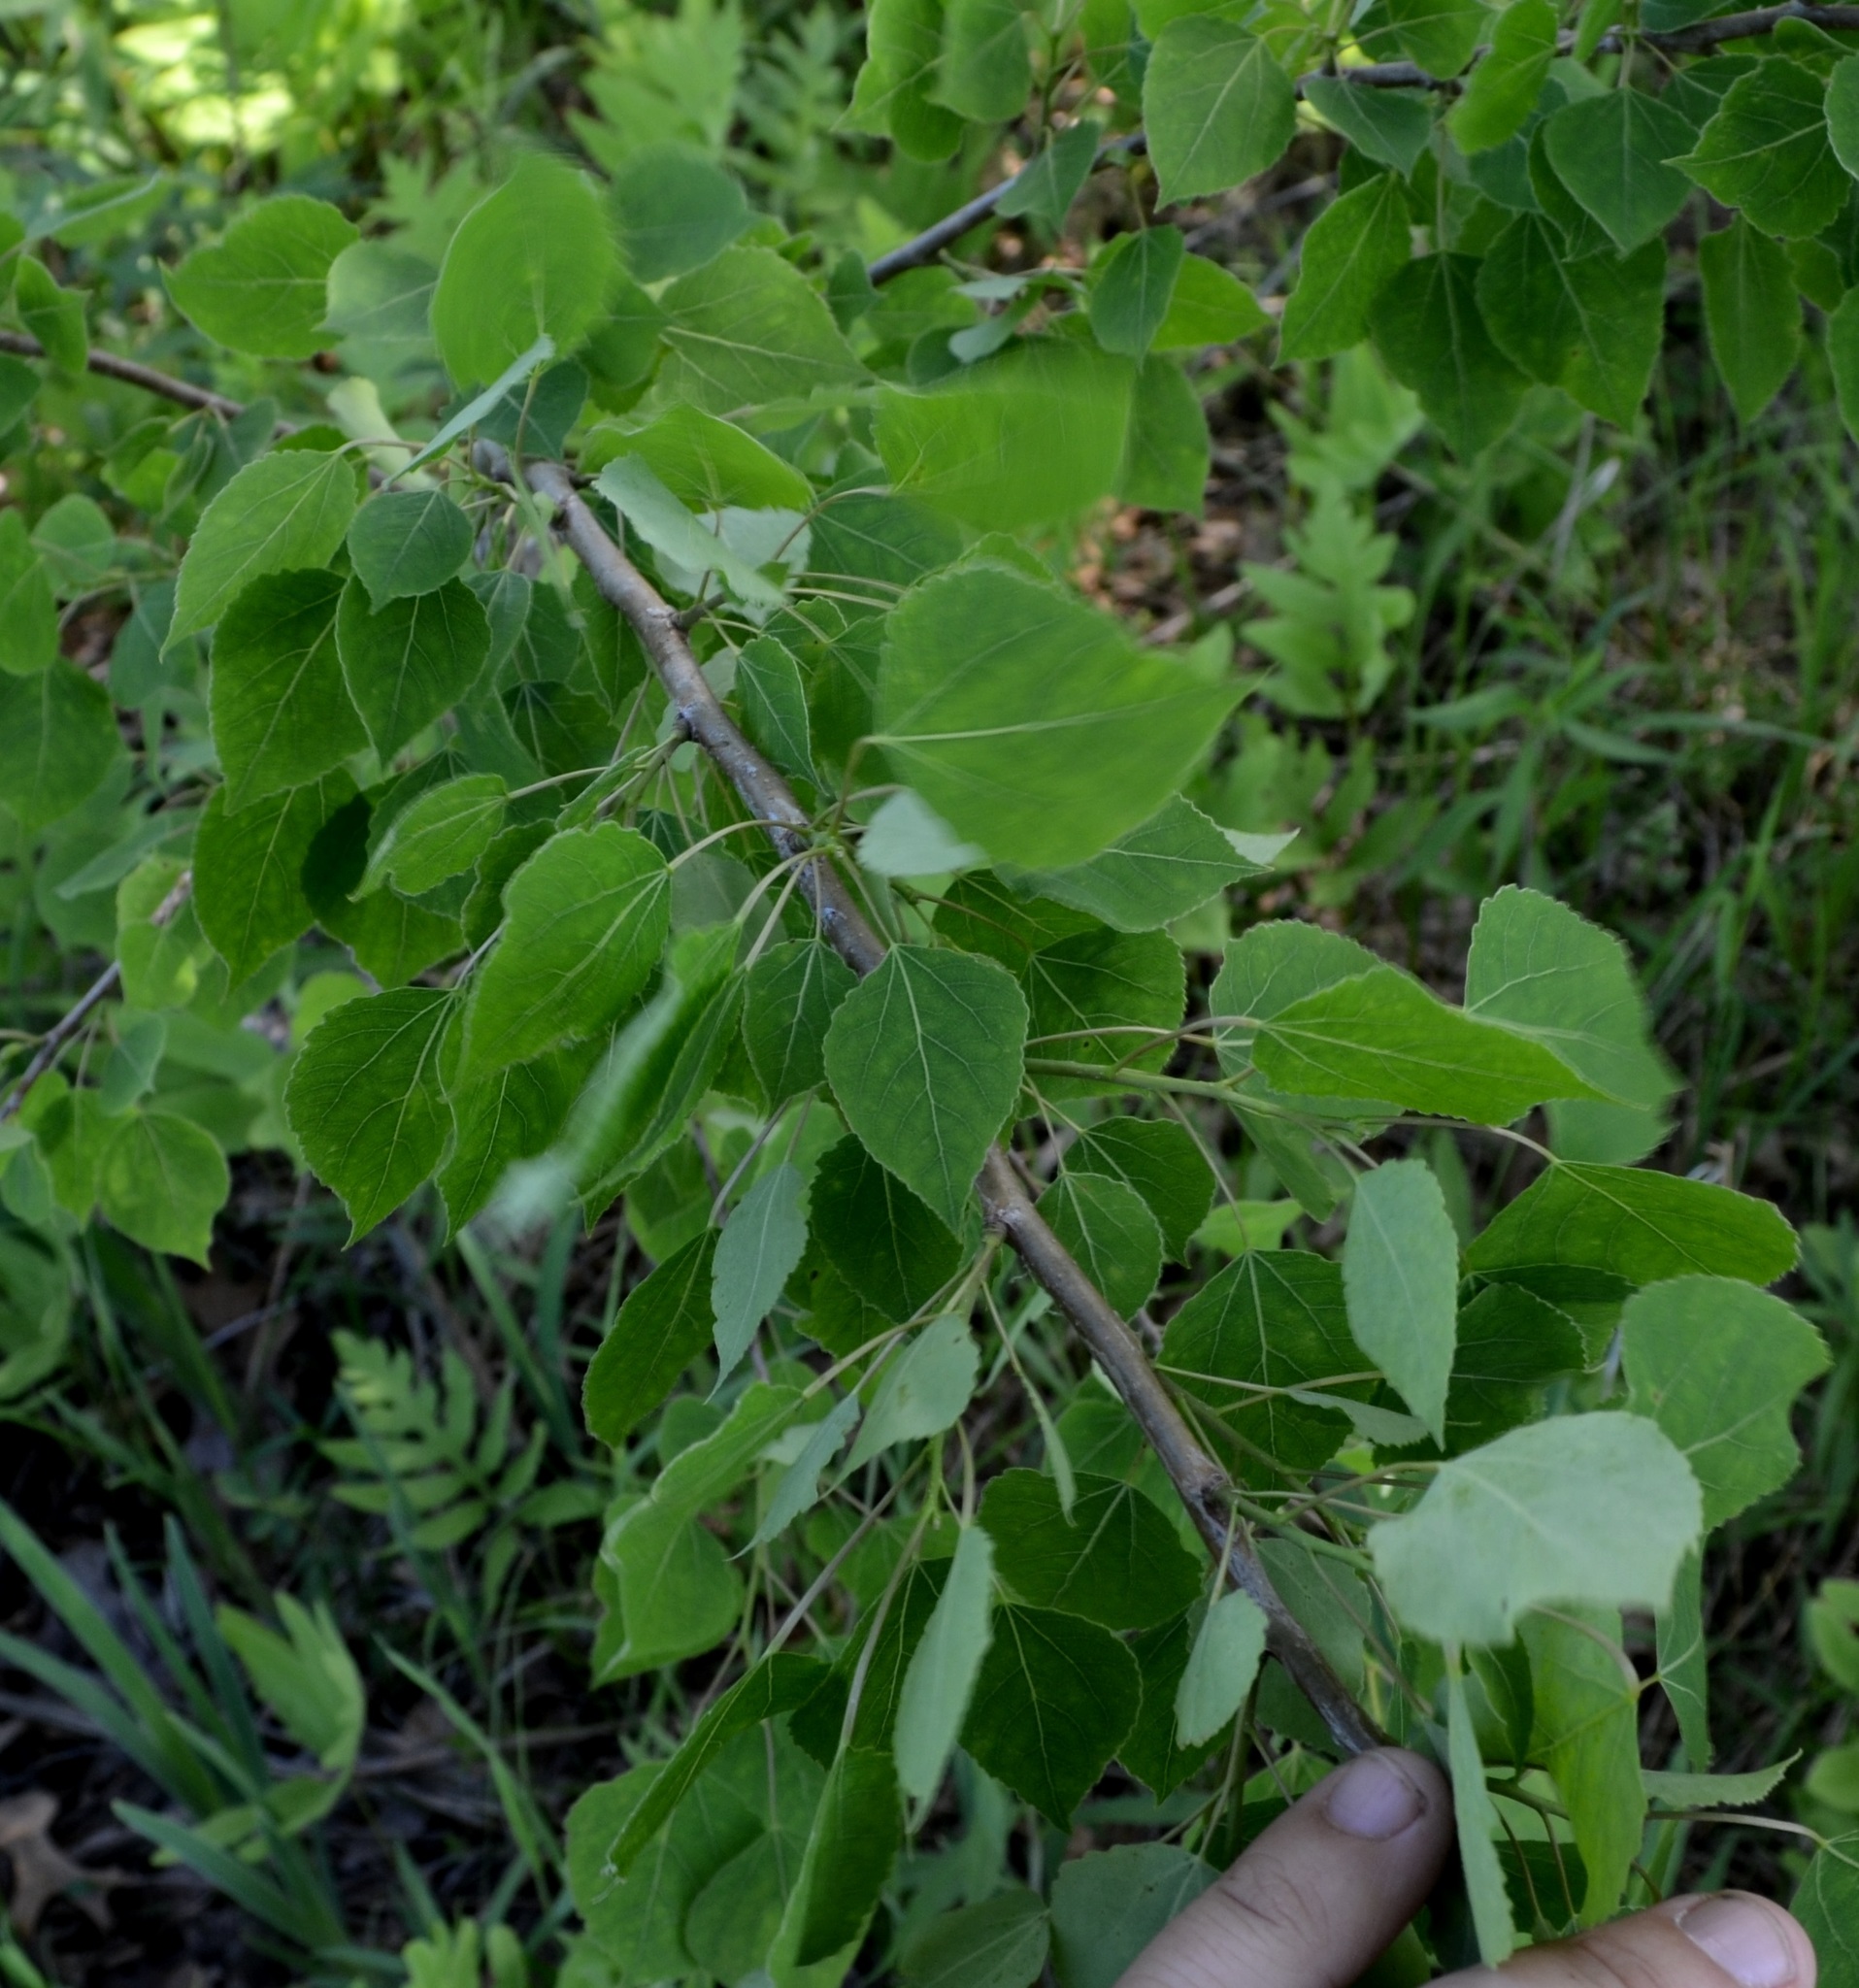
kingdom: Plantae
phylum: Tracheophyta
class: Magnoliopsida
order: Malpighiales
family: Salicaceae
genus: Populus
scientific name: Populus tremuloides
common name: Quaking aspen
